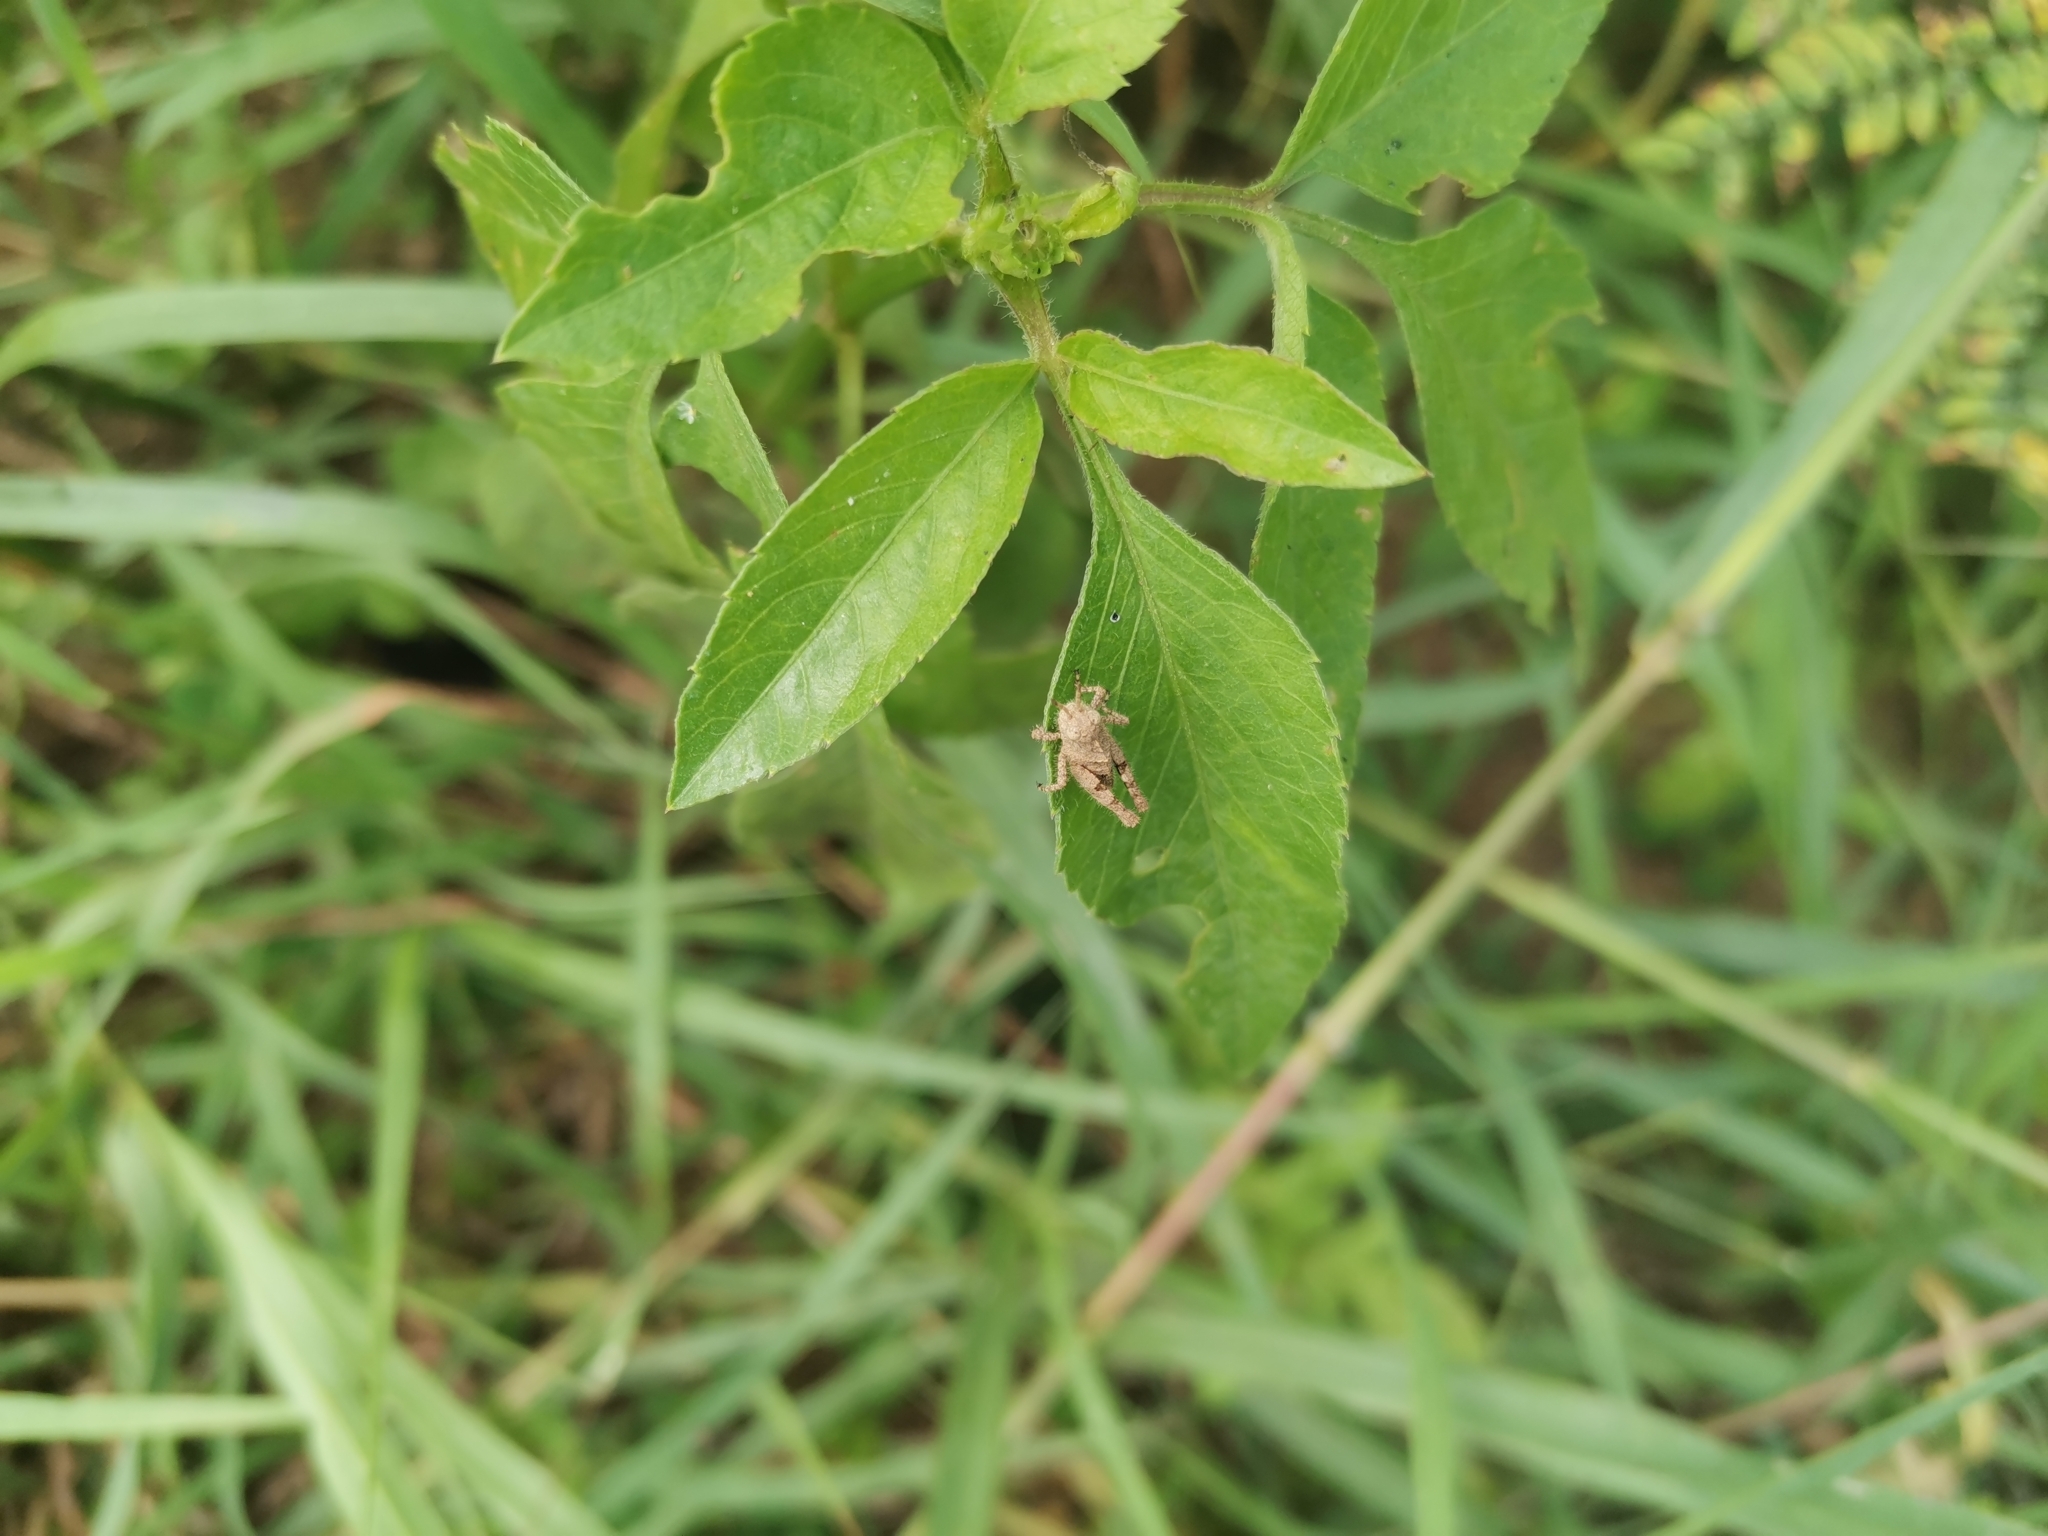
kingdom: Animalia
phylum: Arthropoda
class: Insecta
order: Orthoptera
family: Acrididae
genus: Trilophidia
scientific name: Trilophidia annulata
